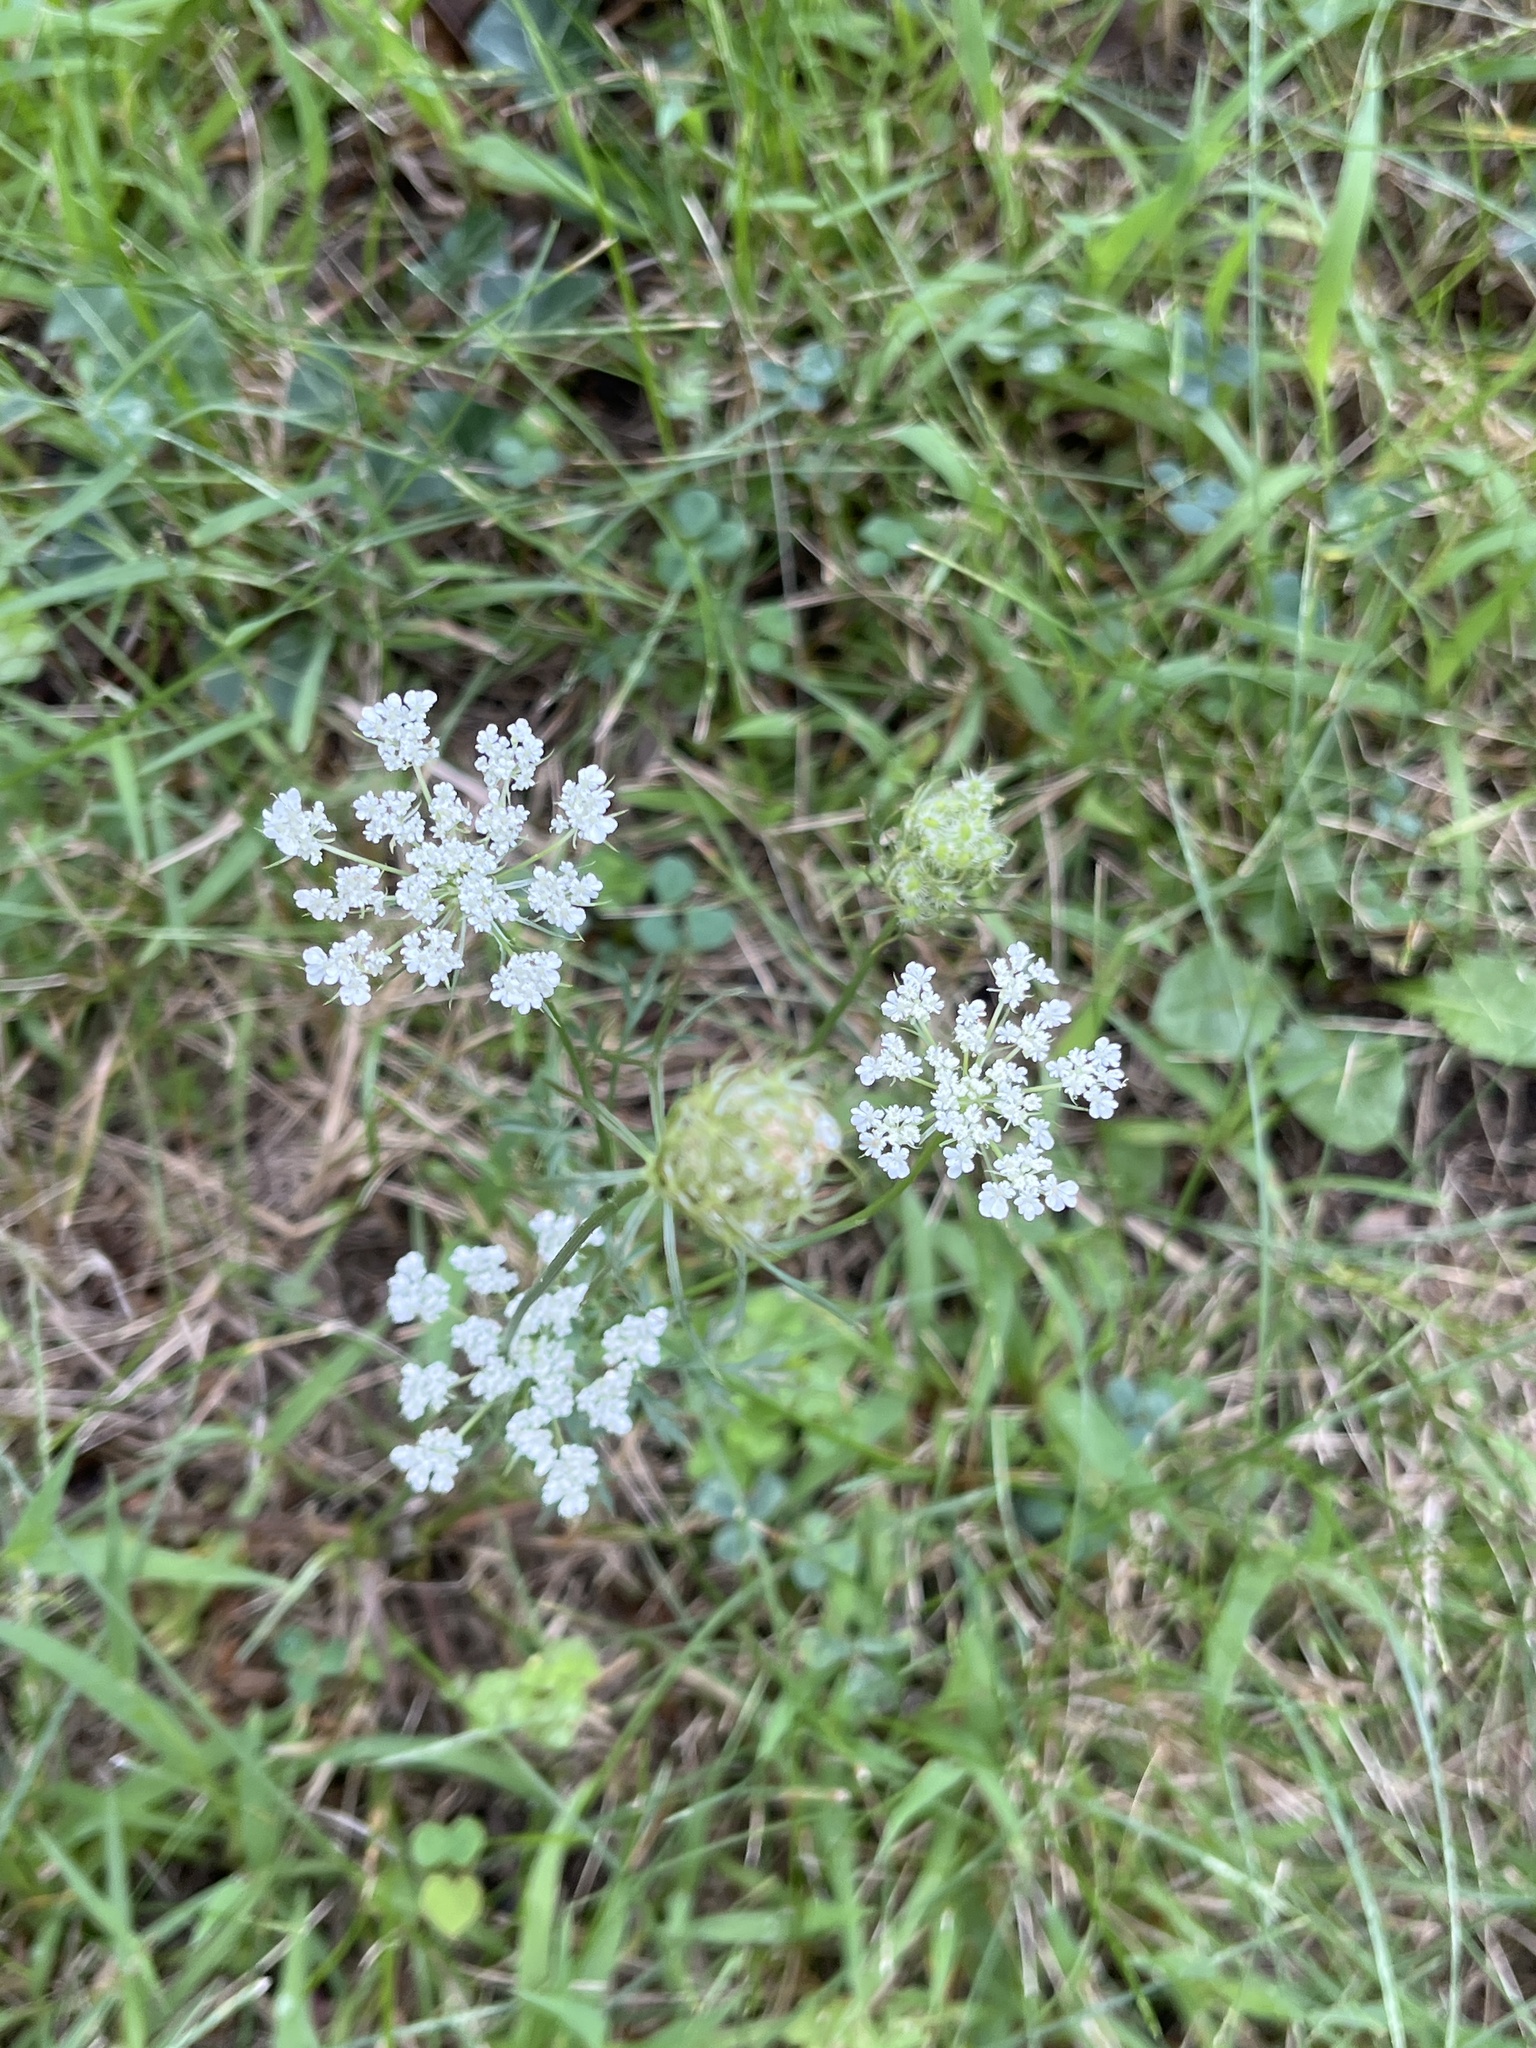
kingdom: Plantae
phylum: Tracheophyta
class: Magnoliopsida
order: Apiales
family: Apiaceae
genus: Daucus
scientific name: Daucus carota
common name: Wild carrot
